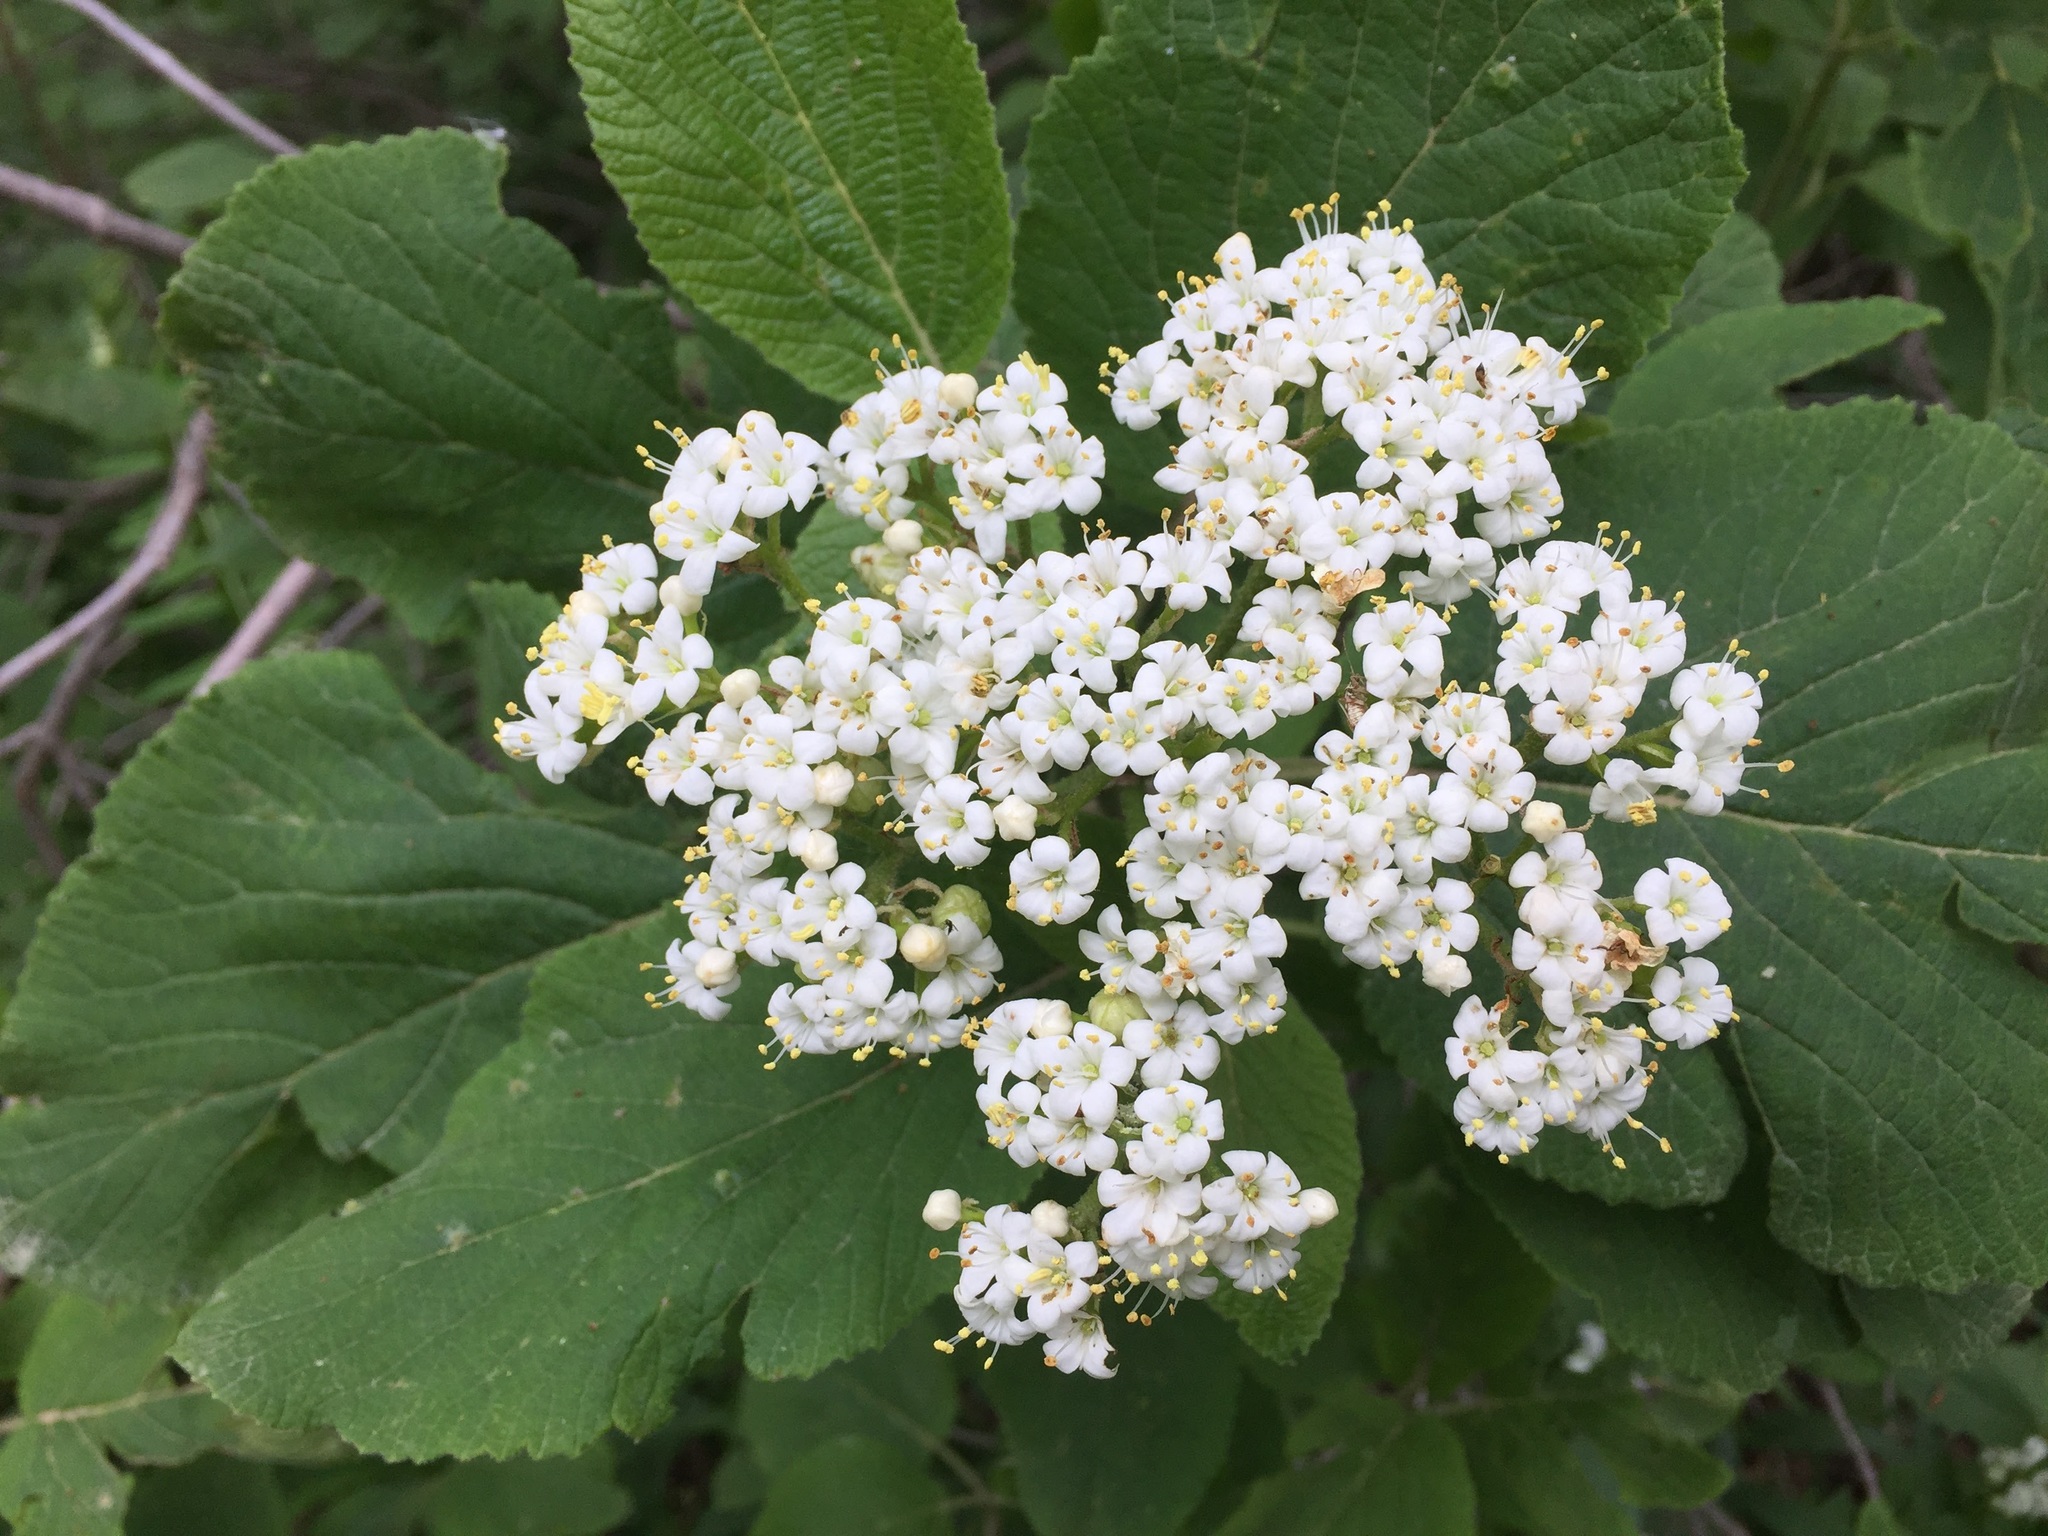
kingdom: Plantae
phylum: Tracheophyta
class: Magnoliopsida
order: Dipsacales
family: Viburnaceae
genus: Viburnum
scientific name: Viburnum lantana
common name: Wayfaring tree
